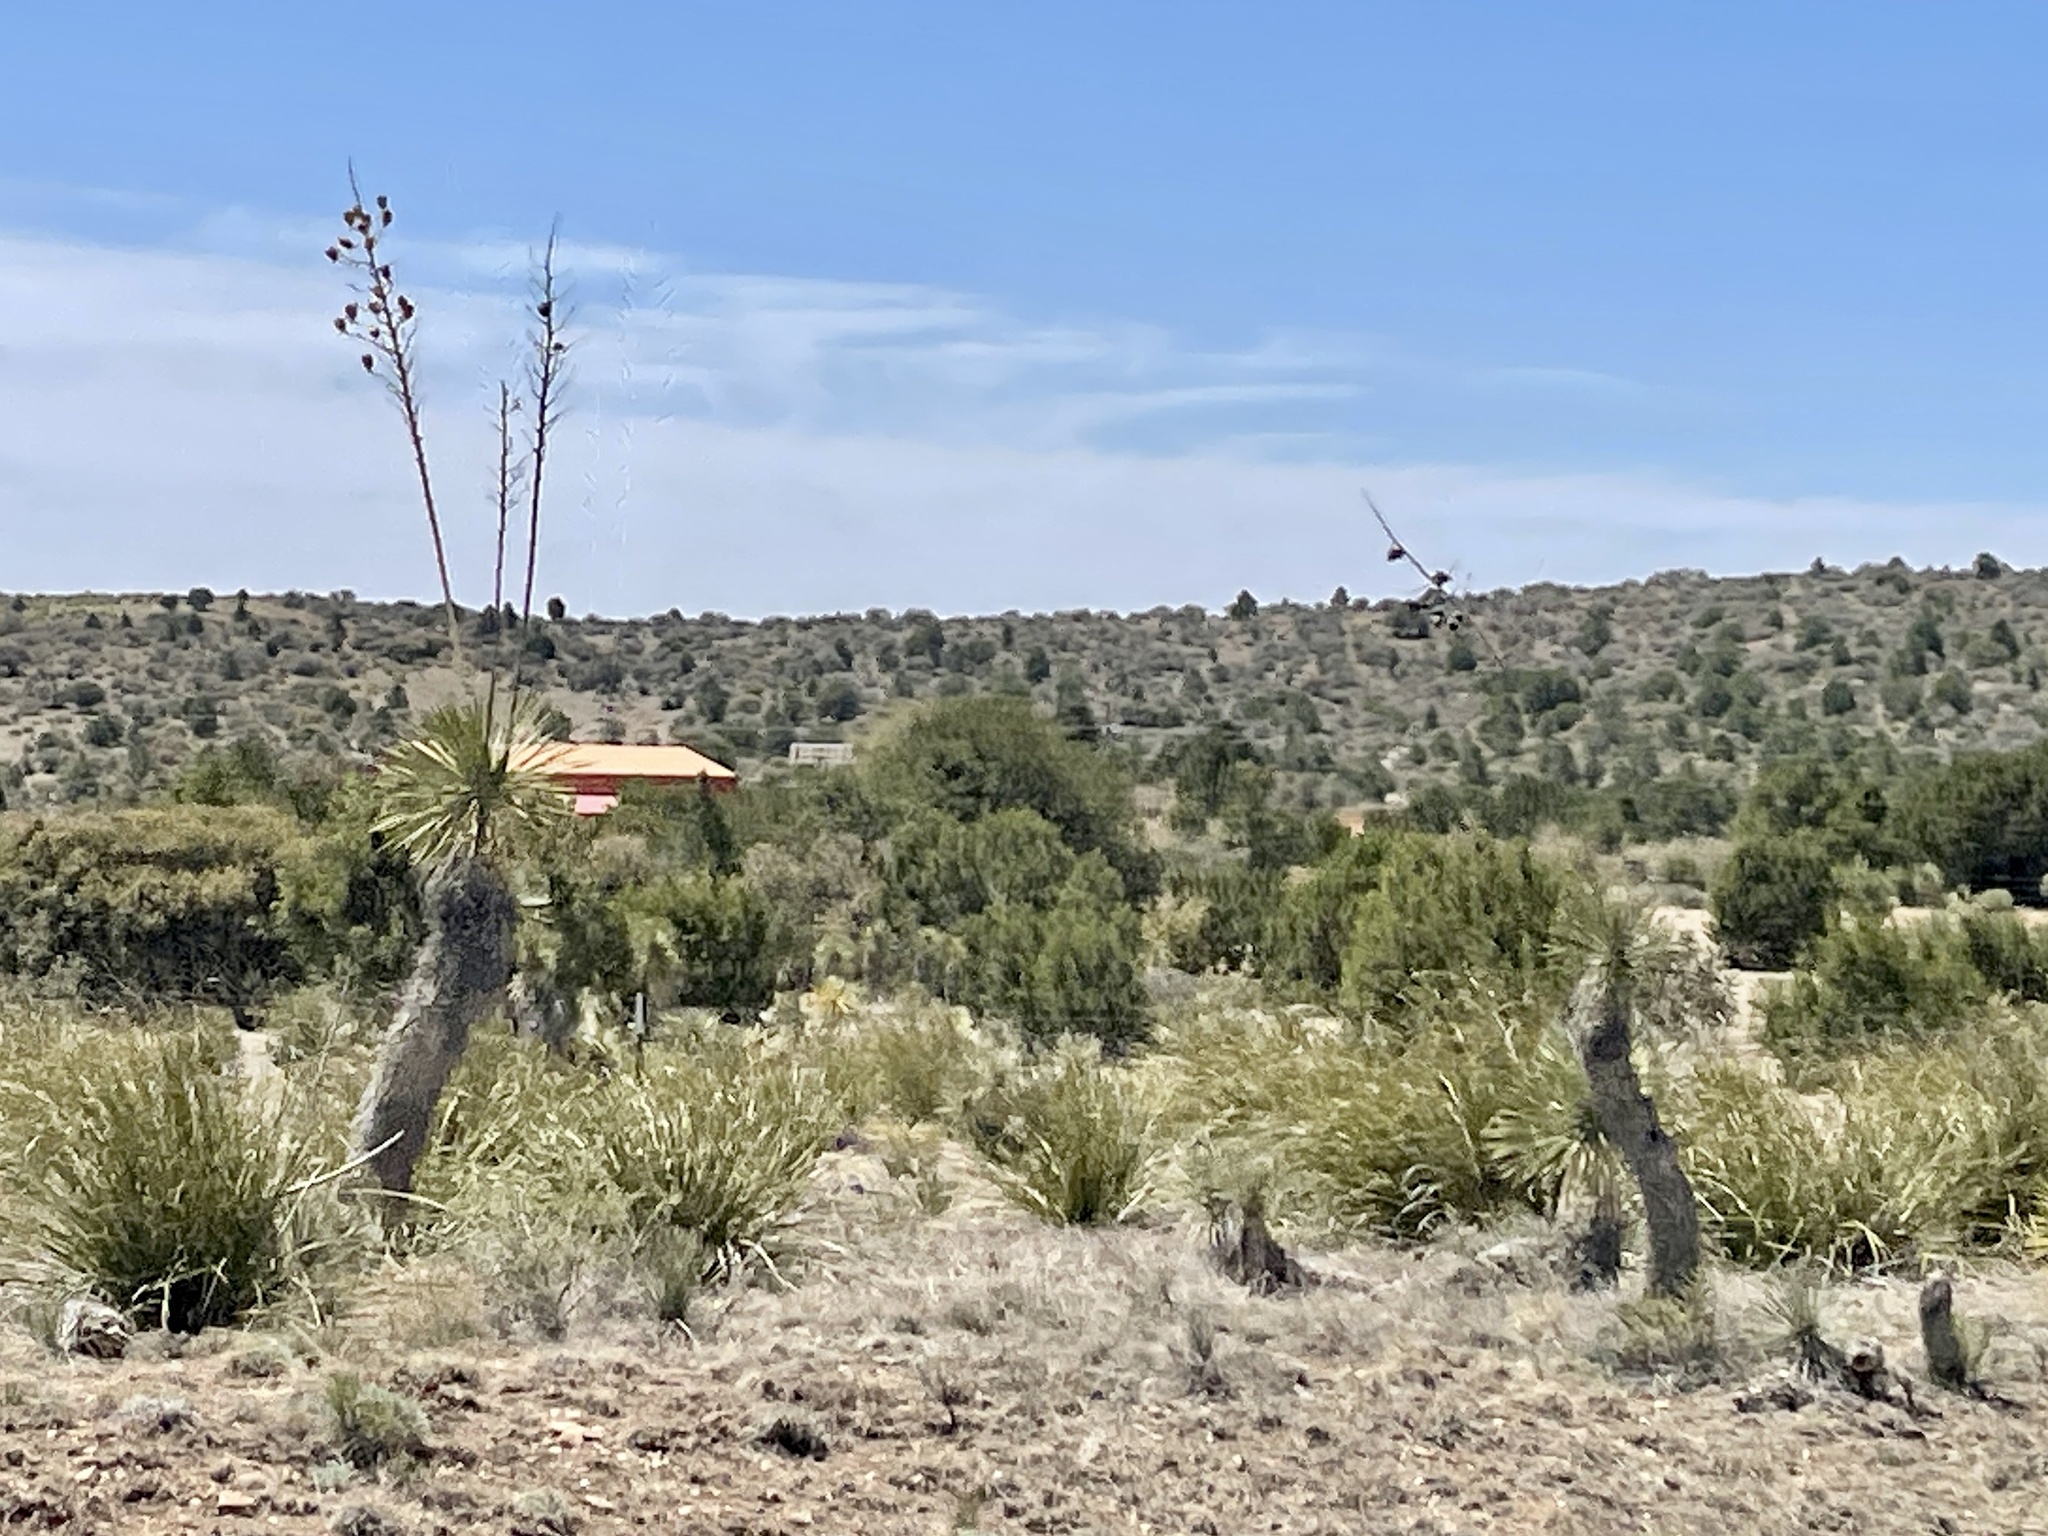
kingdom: Plantae
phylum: Tracheophyta
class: Liliopsida
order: Asparagales
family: Asparagaceae
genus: Yucca
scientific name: Yucca elata
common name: Palmella
